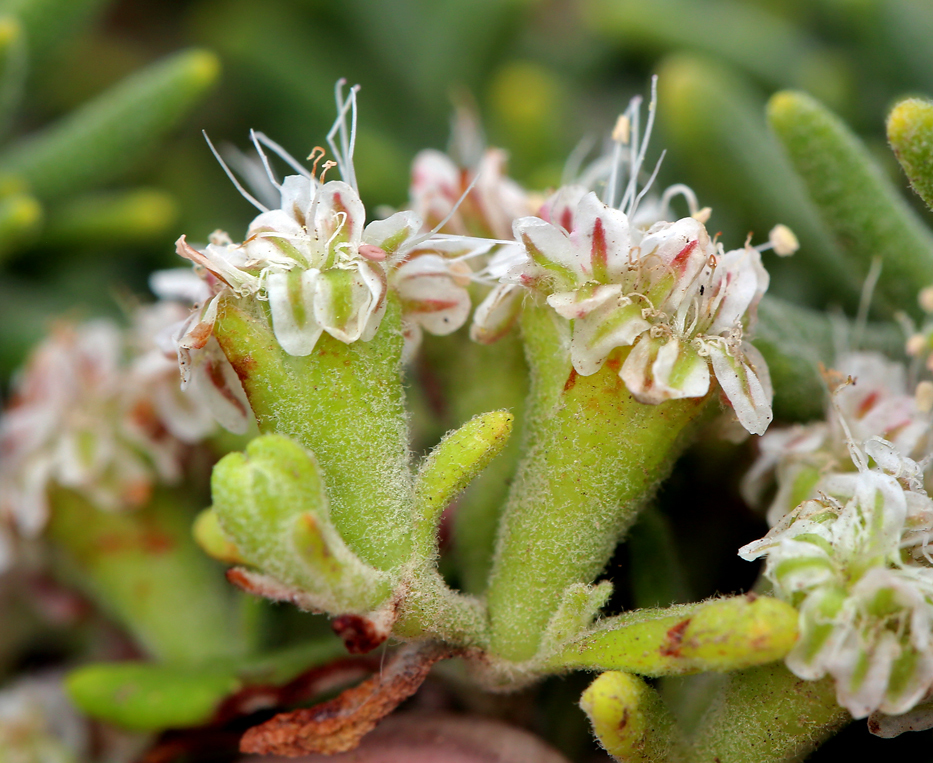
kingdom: Plantae
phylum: Tracheophyta
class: Magnoliopsida
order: Caryophyllales
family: Polygonaceae
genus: Eriogonum
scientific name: Eriogonum arborescens
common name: Island buckwheat
